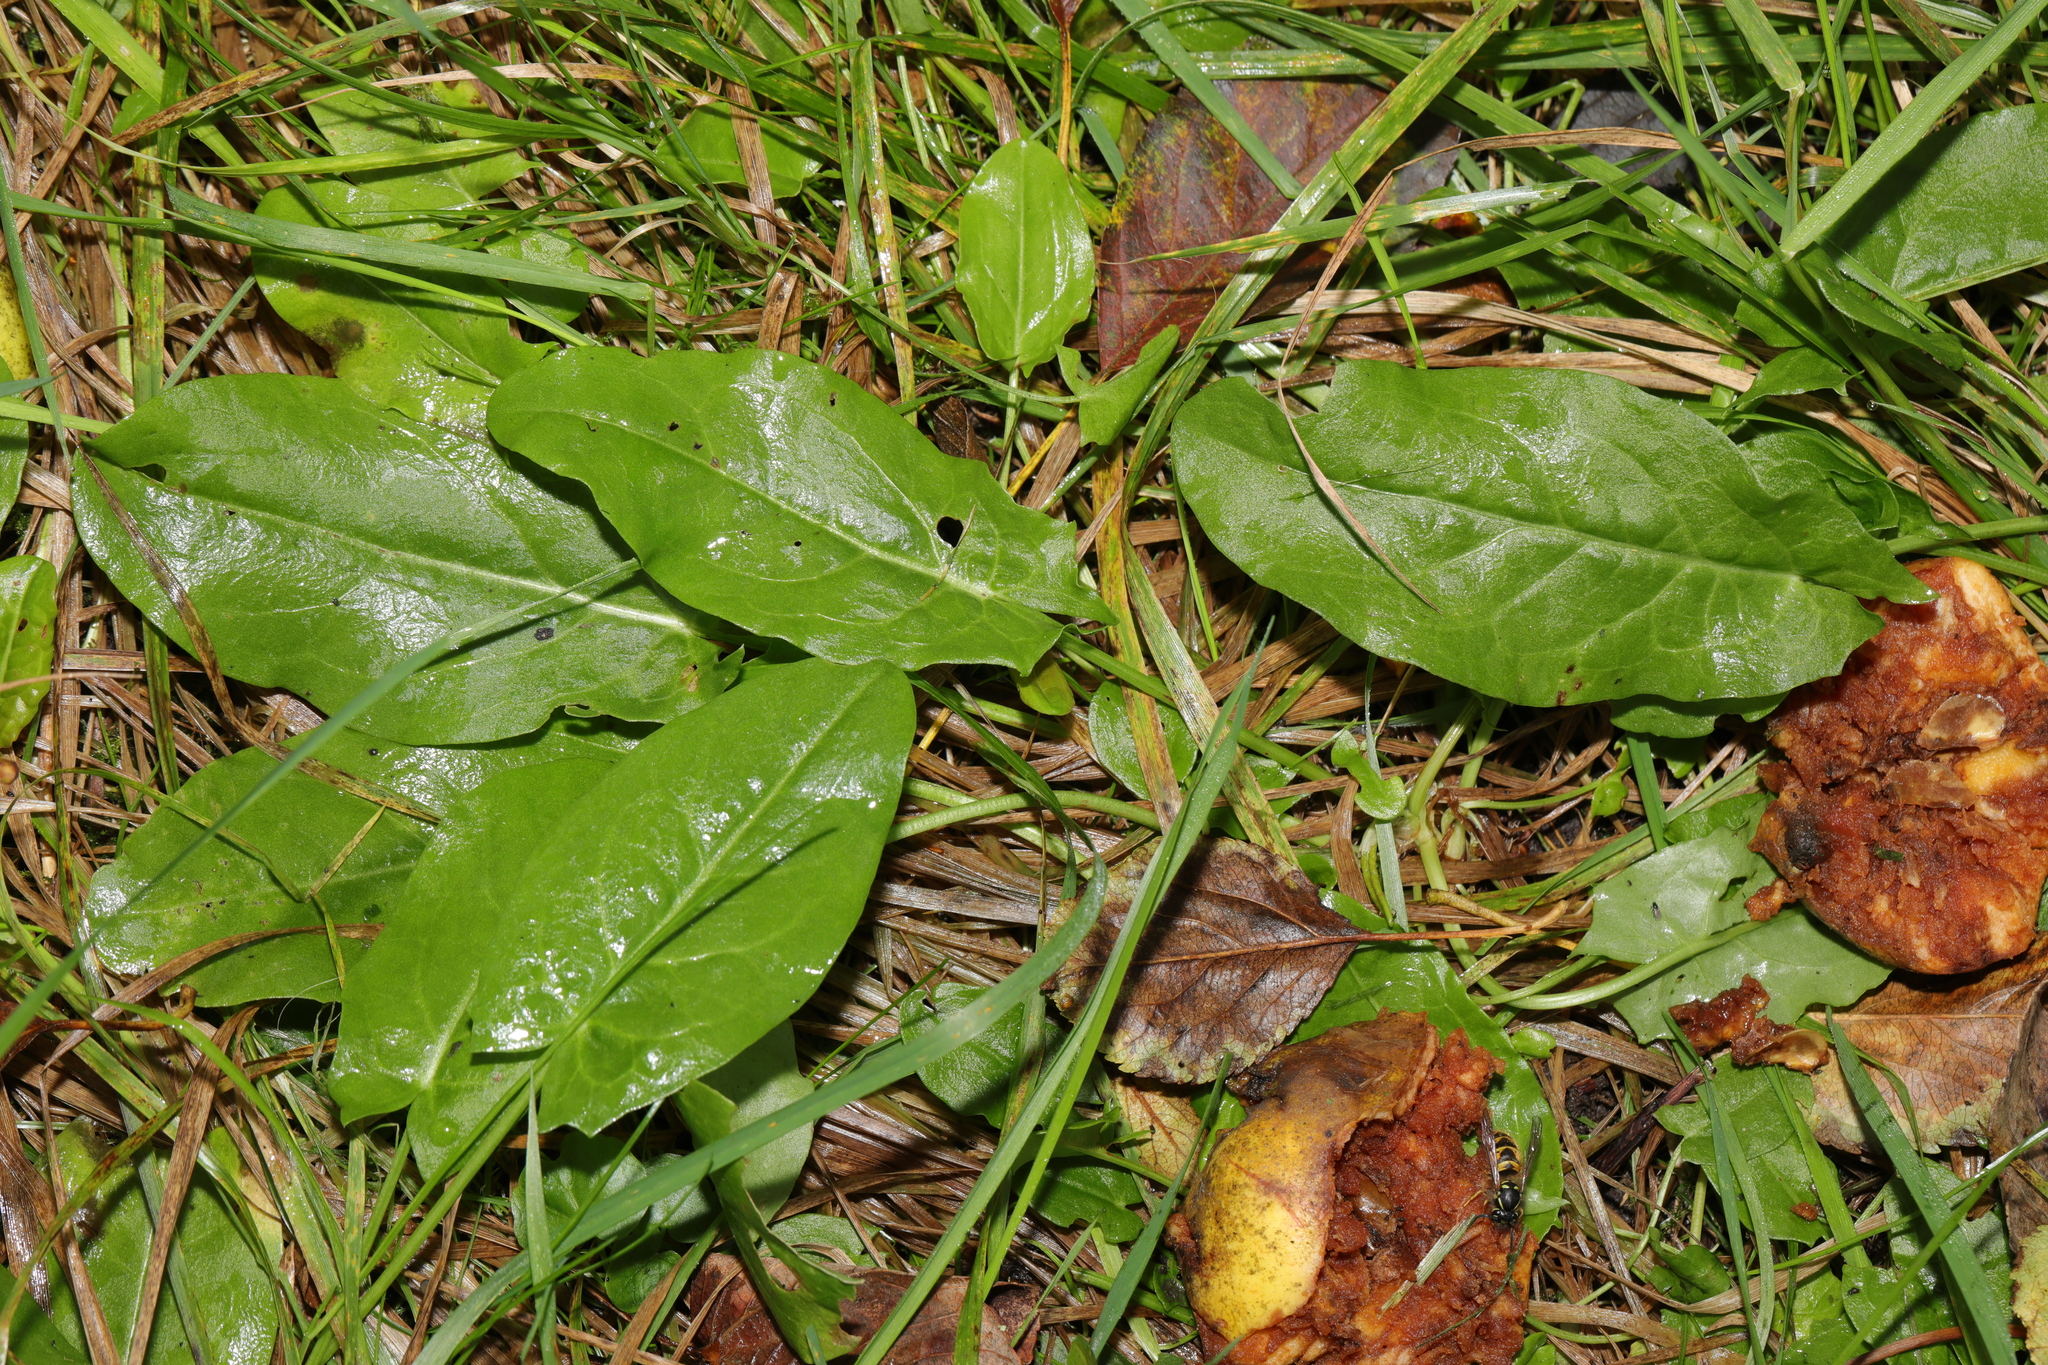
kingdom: Plantae
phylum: Tracheophyta
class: Magnoliopsida
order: Caryophyllales
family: Polygonaceae
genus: Rumex
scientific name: Rumex acetosa
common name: Garden sorrel
